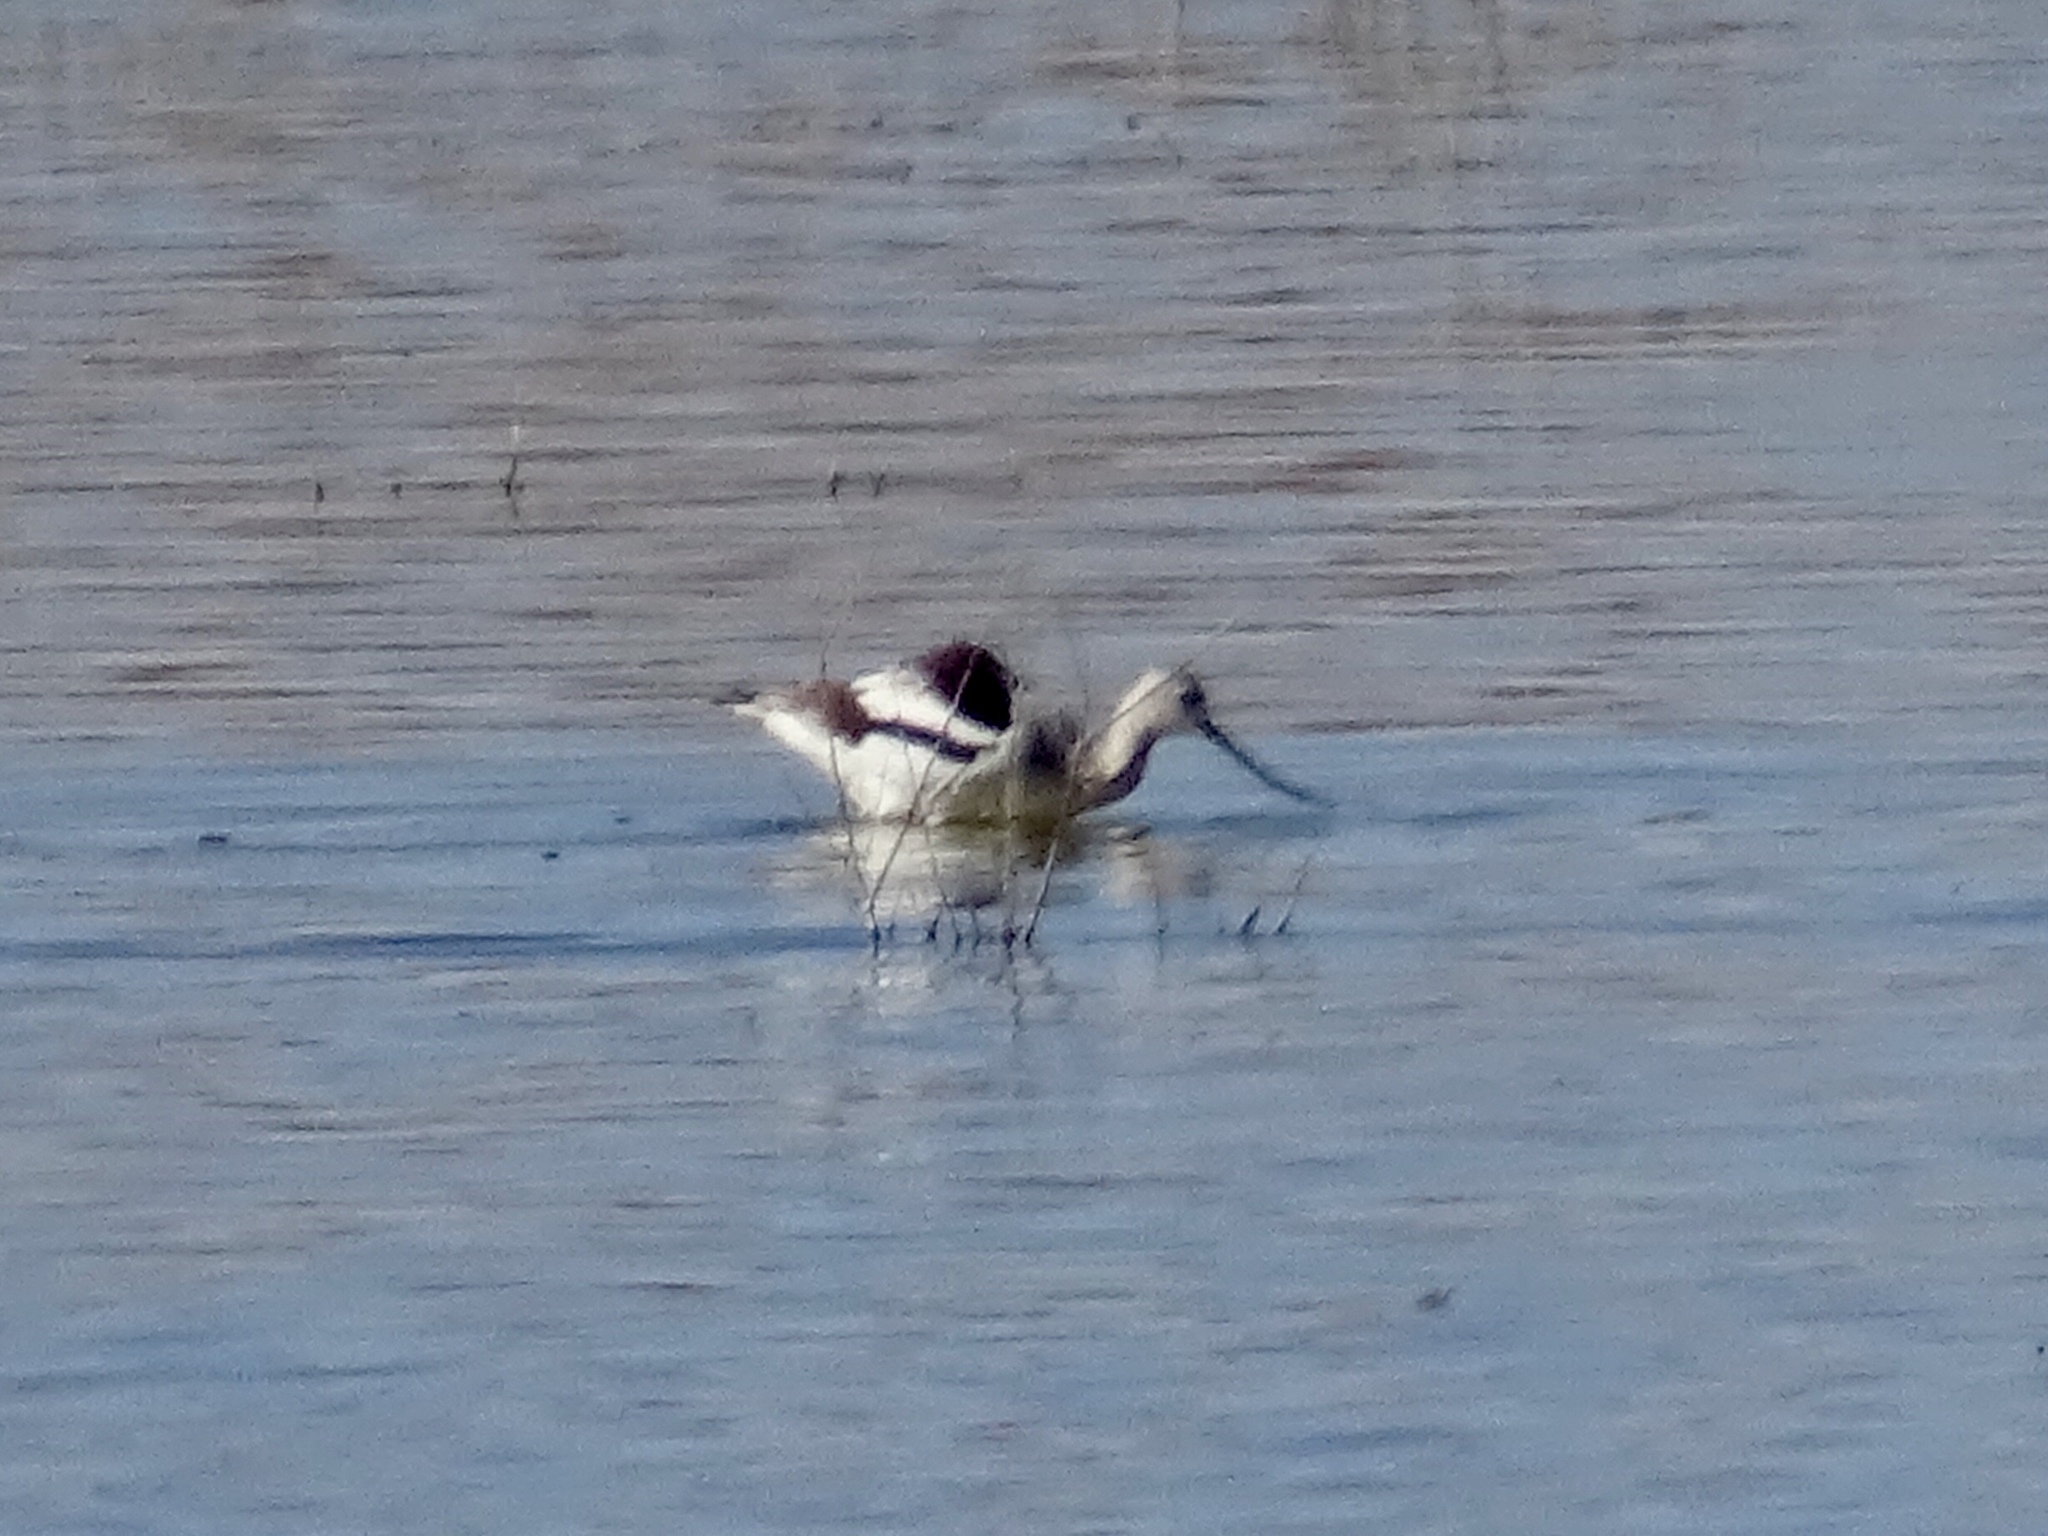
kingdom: Animalia
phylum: Chordata
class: Aves
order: Charadriiformes
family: Recurvirostridae
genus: Recurvirostra
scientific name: Recurvirostra americana
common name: American avocet
